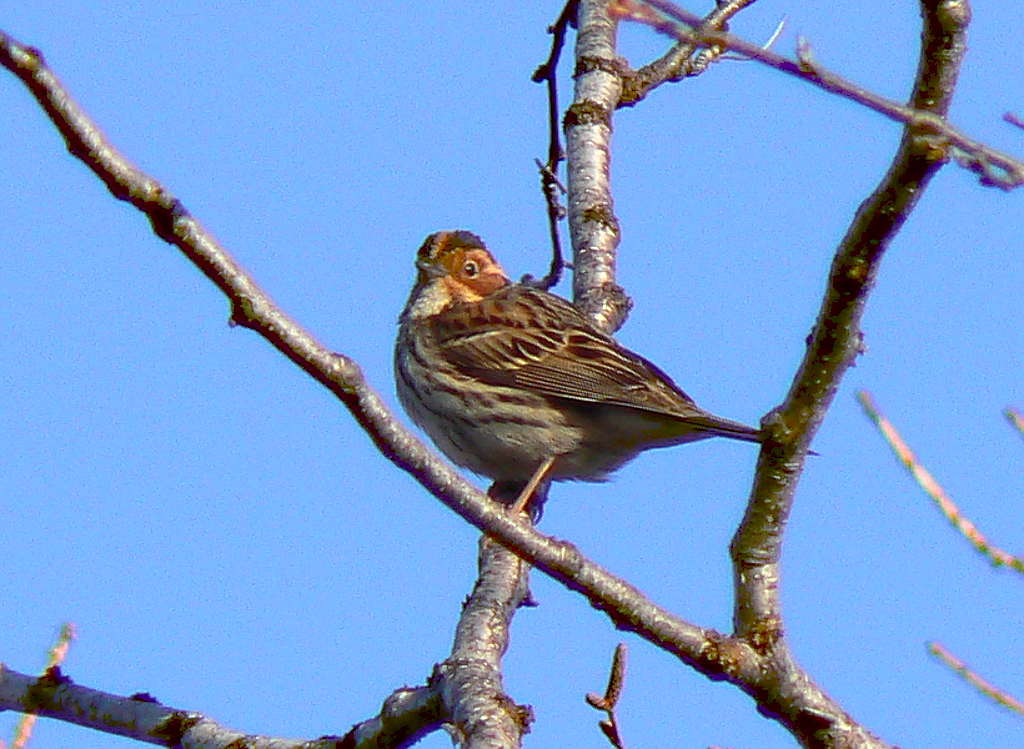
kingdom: Animalia
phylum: Chordata
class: Aves
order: Passeriformes
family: Emberizidae
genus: Emberiza
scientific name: Emberiza pusilla
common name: Little bunting
